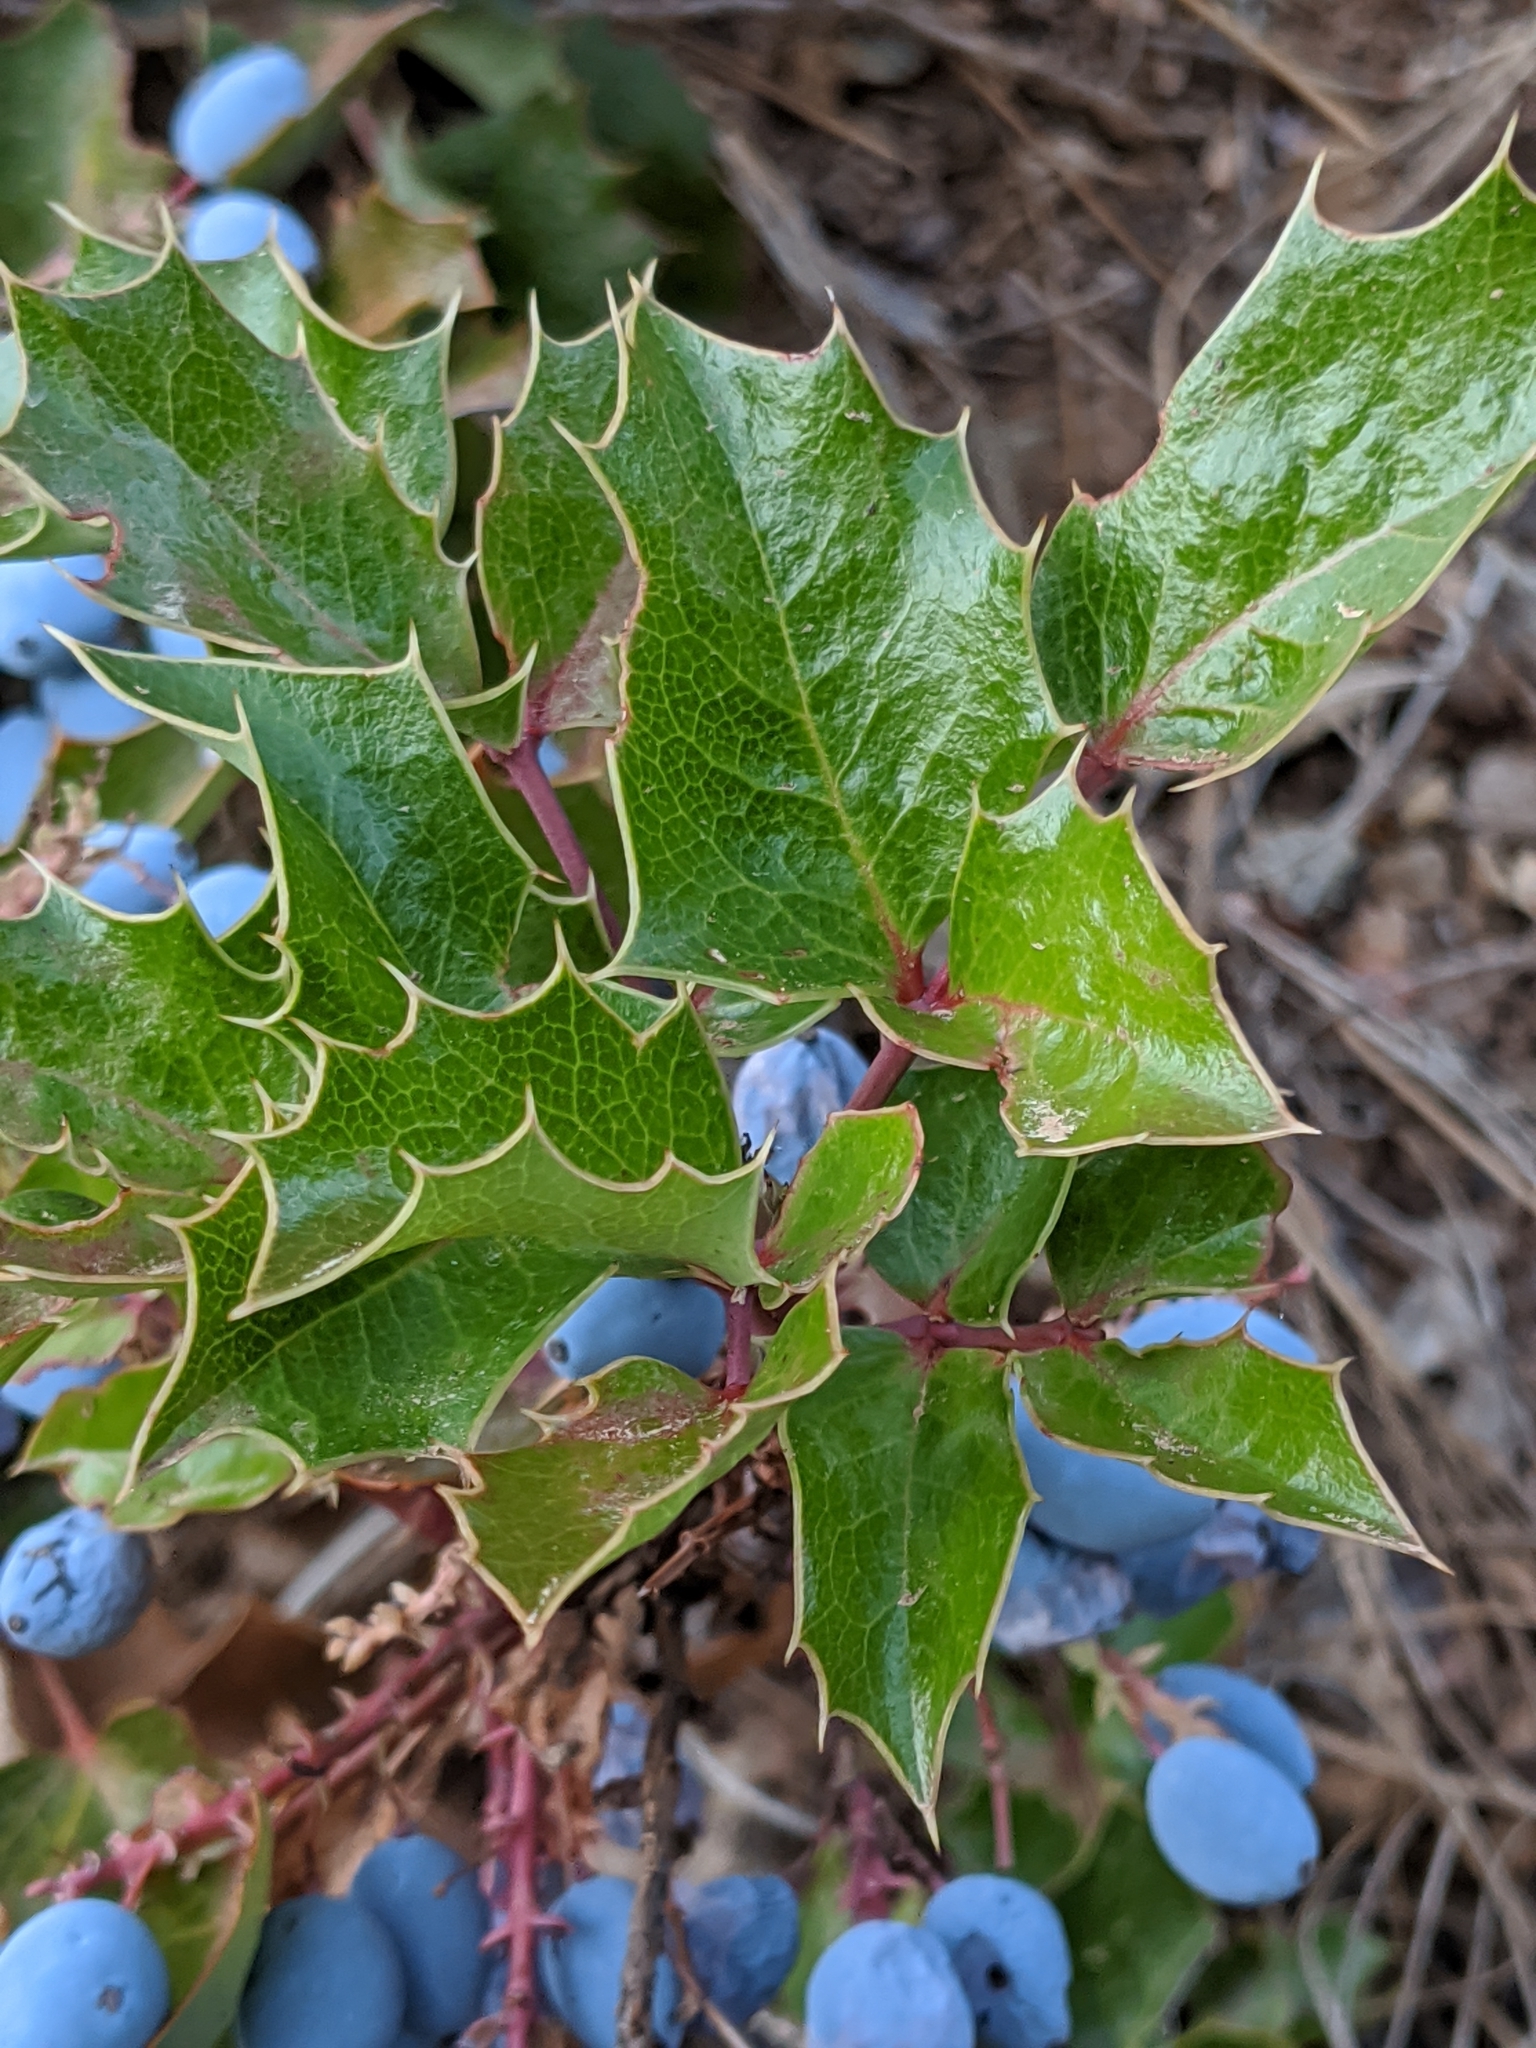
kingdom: Plantae
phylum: Tracheophyta
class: Magnoliopsida
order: Ranunculales
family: Berberidaceae
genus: Mahonia
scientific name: Mahonia aquifolium
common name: Oregon-grape
